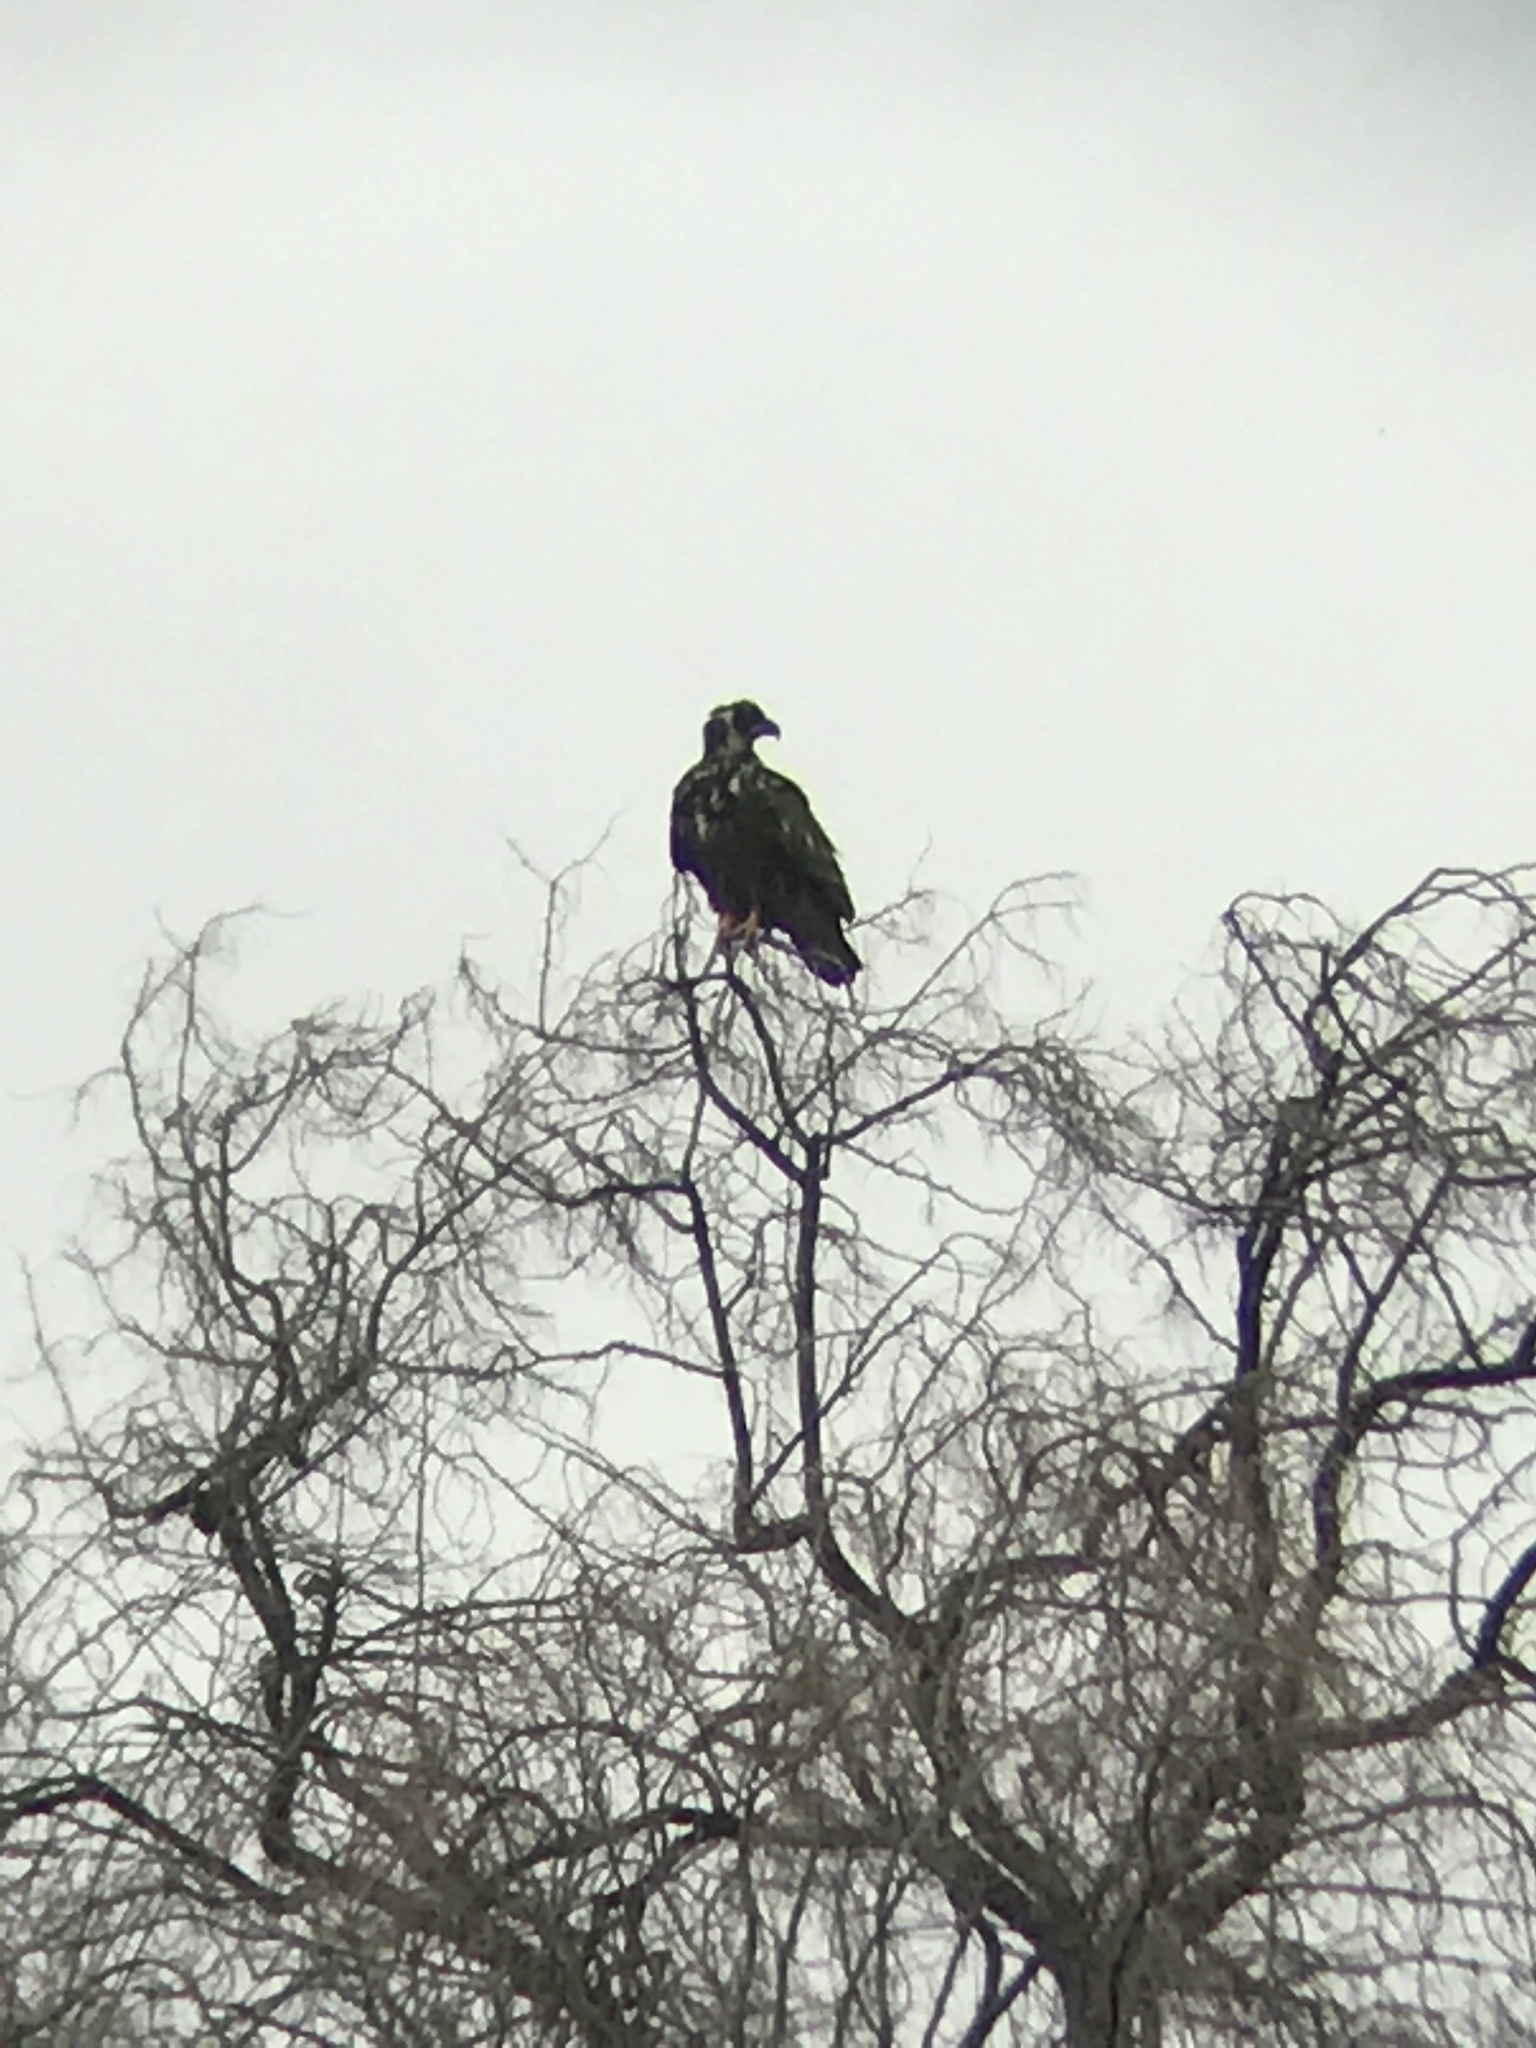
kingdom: Animalia
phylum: Chordata
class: Aves
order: Accipitriformes
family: Accipitridae
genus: Haliaeetus
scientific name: Haliaeetus leucocephalus
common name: Bald eagle
